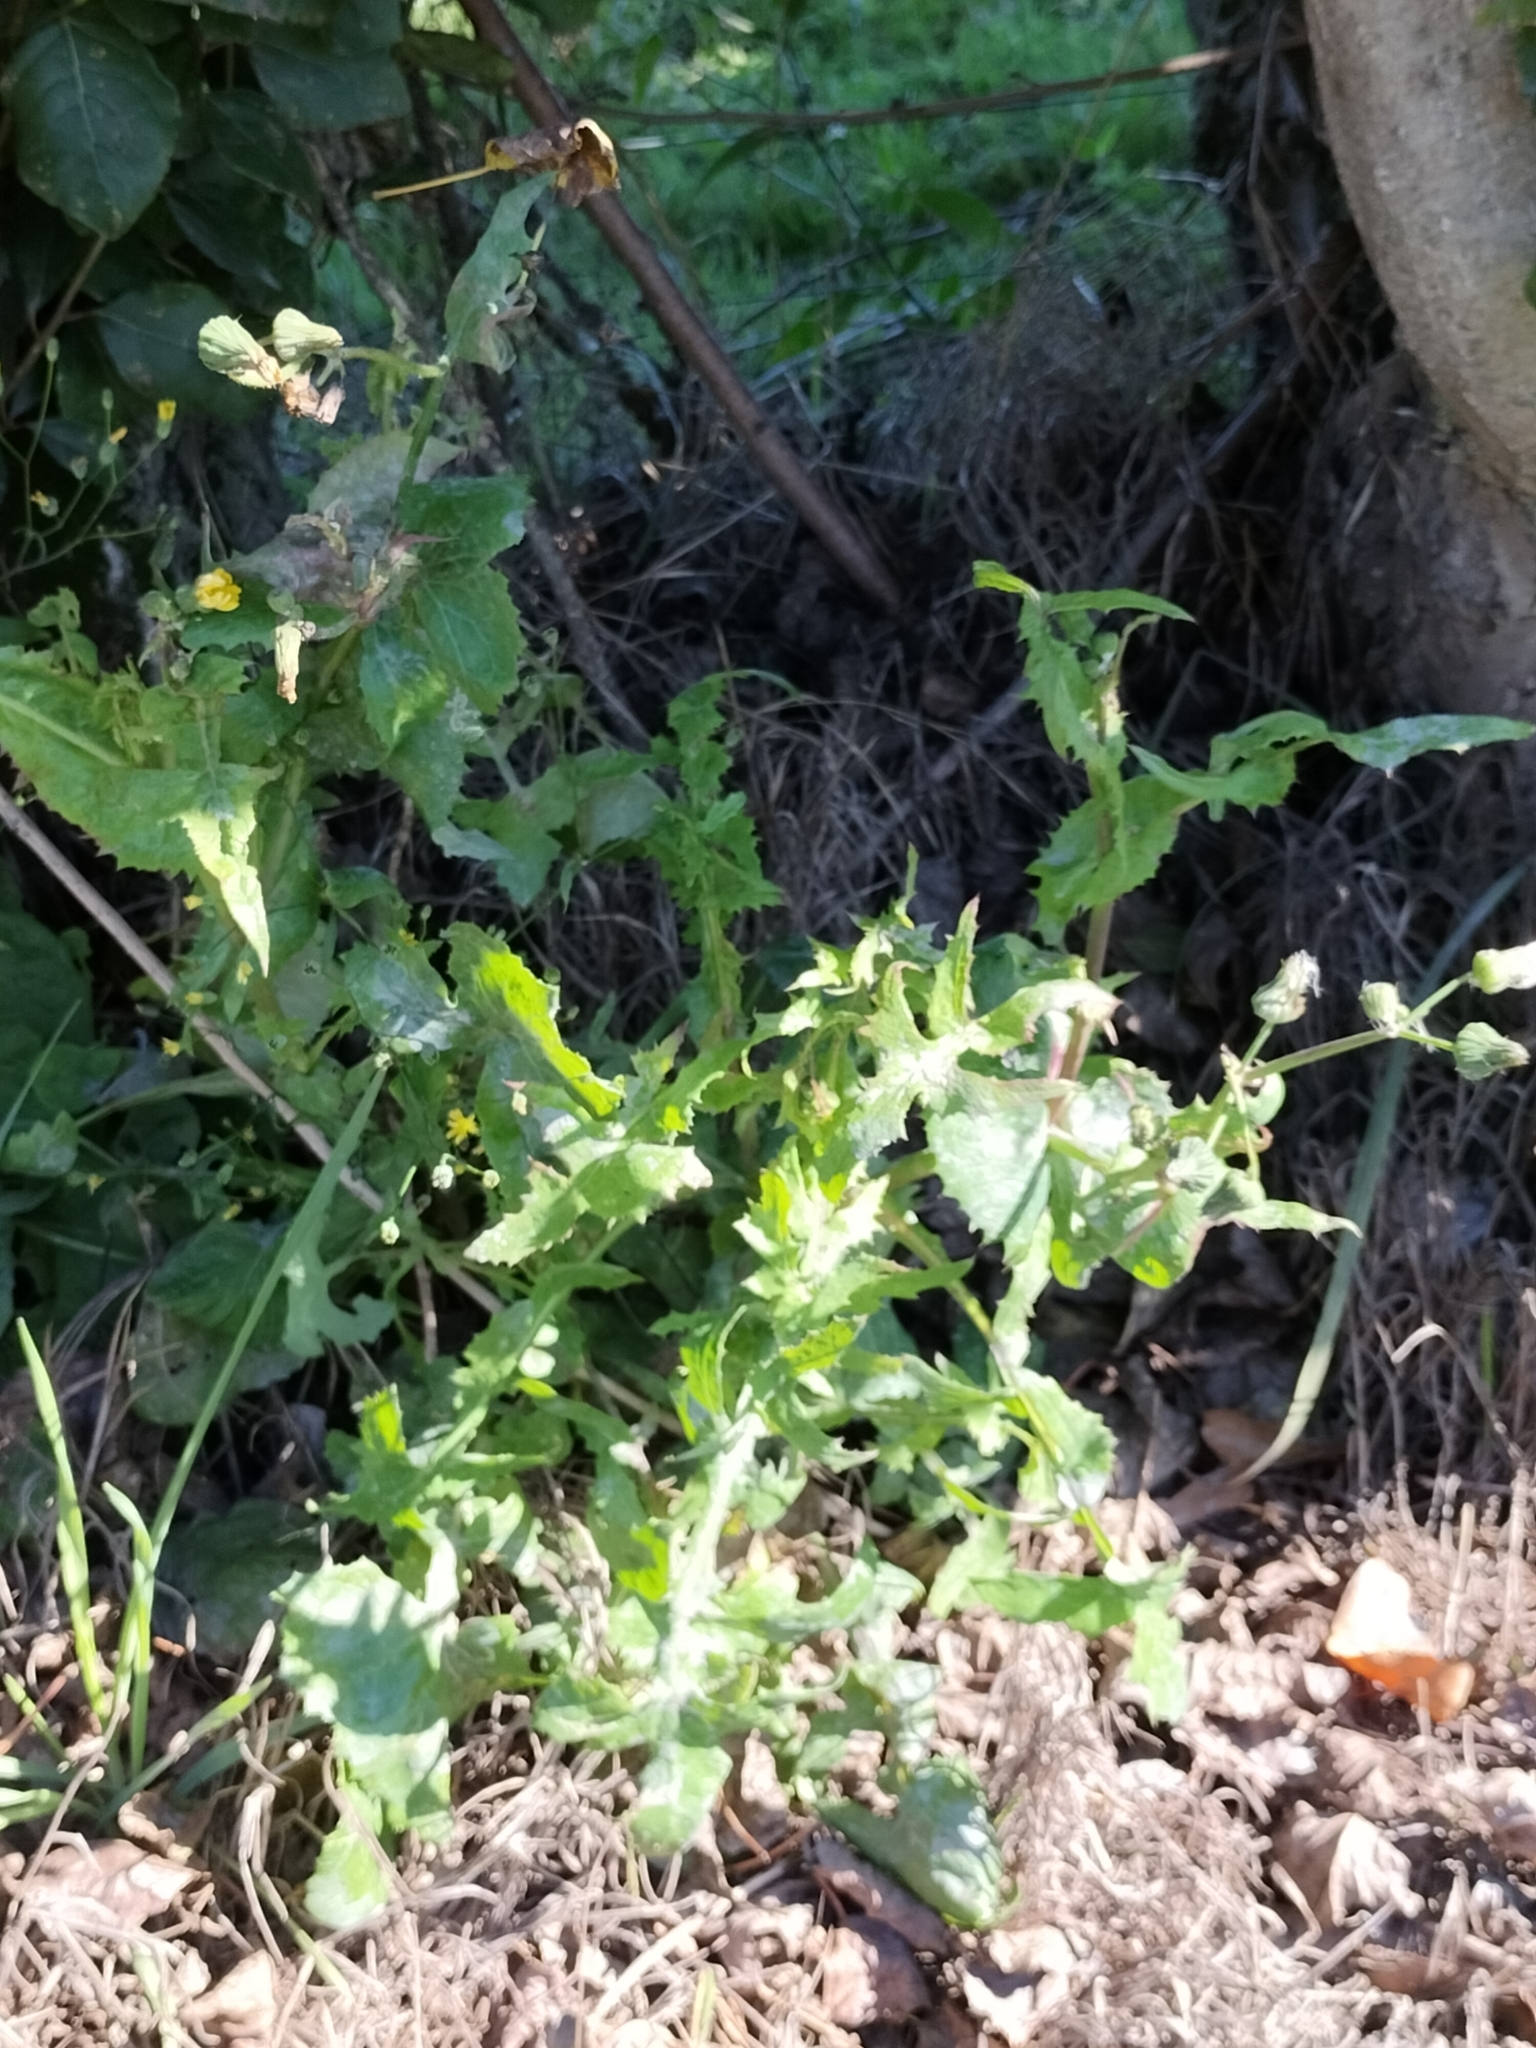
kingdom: Plantae
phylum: Tracheophyta
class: Magnoliopsida
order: Asterales
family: Asteraceae
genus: Sonchus
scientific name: Sonchus oleraceus
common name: Common sowthistle
